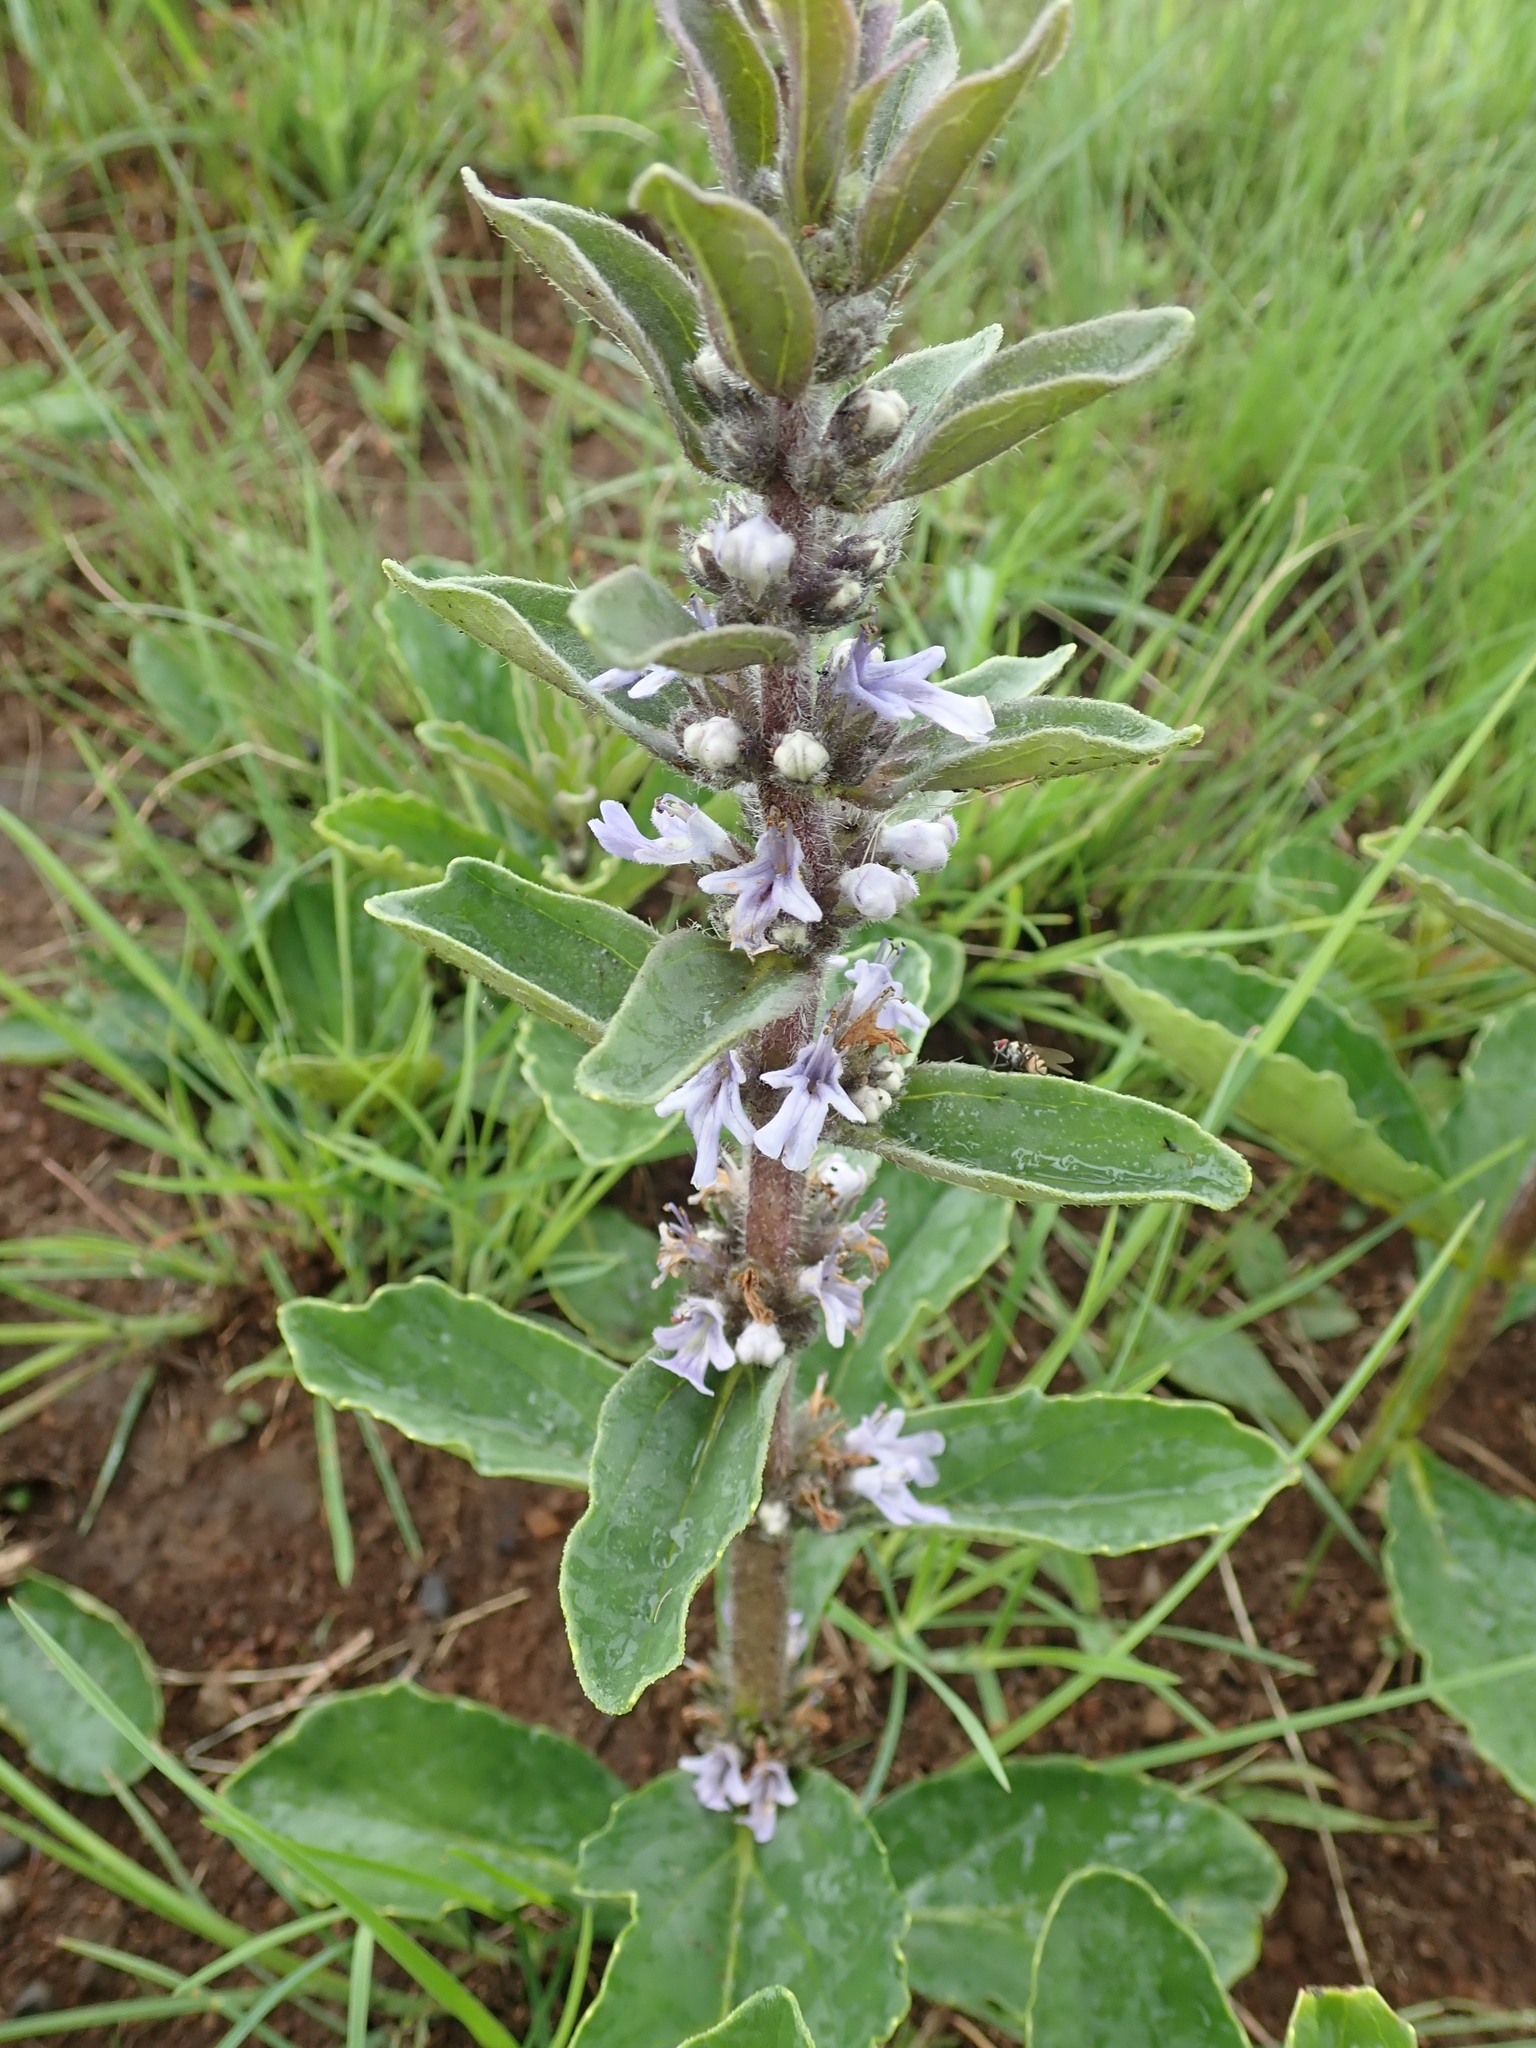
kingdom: Plantae
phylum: Tracheophyta
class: Magnoliopsida
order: Lamiales
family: Lamiaceae
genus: Ajuga
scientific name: Ajuga ophrydis
